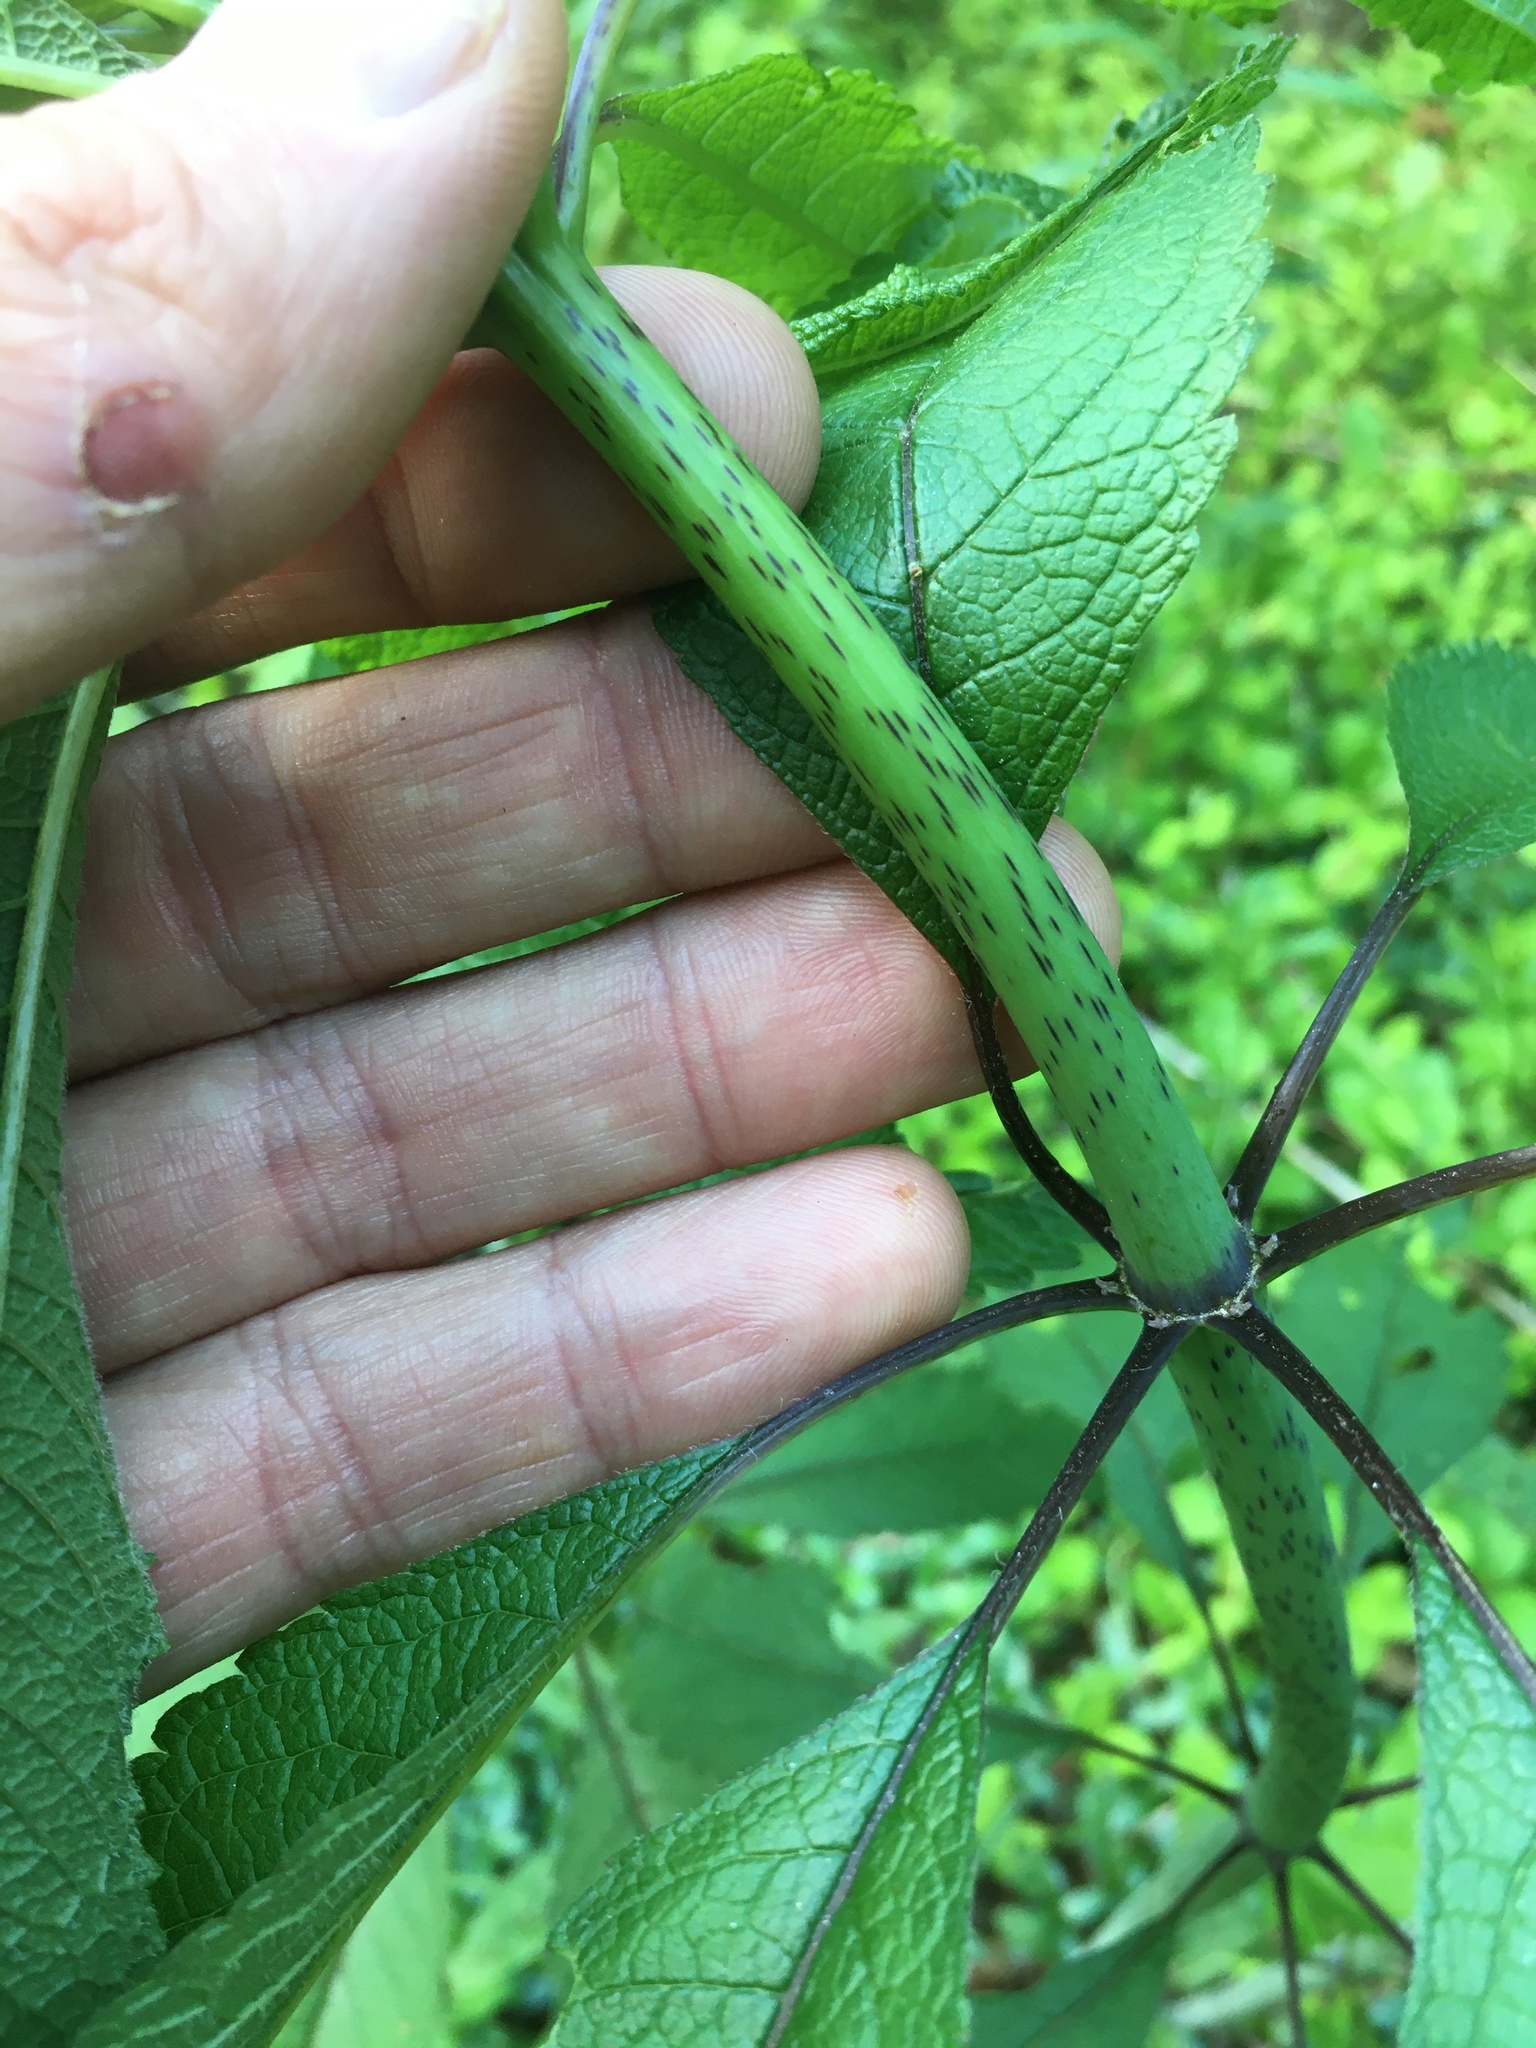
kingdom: Plantae
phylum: Tracheophyta
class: Magnoliopsida
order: Asterales
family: Asteraceae
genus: Eutrochium
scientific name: Eutrochium fistulosum
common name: Trumpetweed
